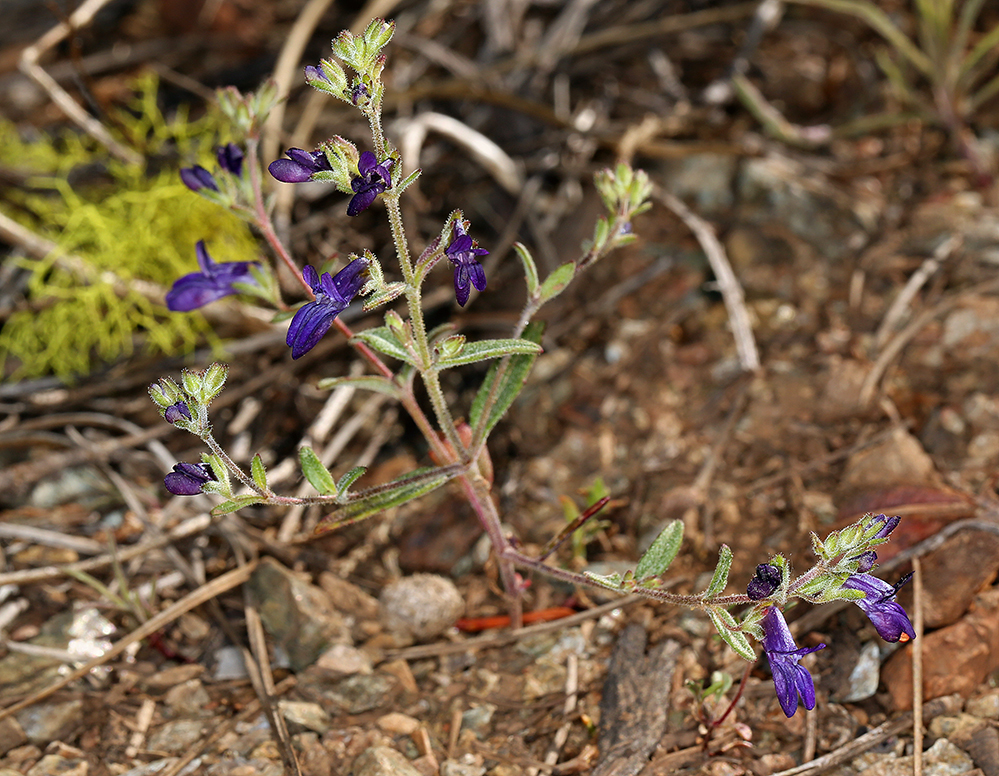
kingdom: Plantae
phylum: Tracheophyta
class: Magnoliopsida
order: Lamiales
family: Plantaginaceae
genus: Collinsia
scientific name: Collinsia greenei
